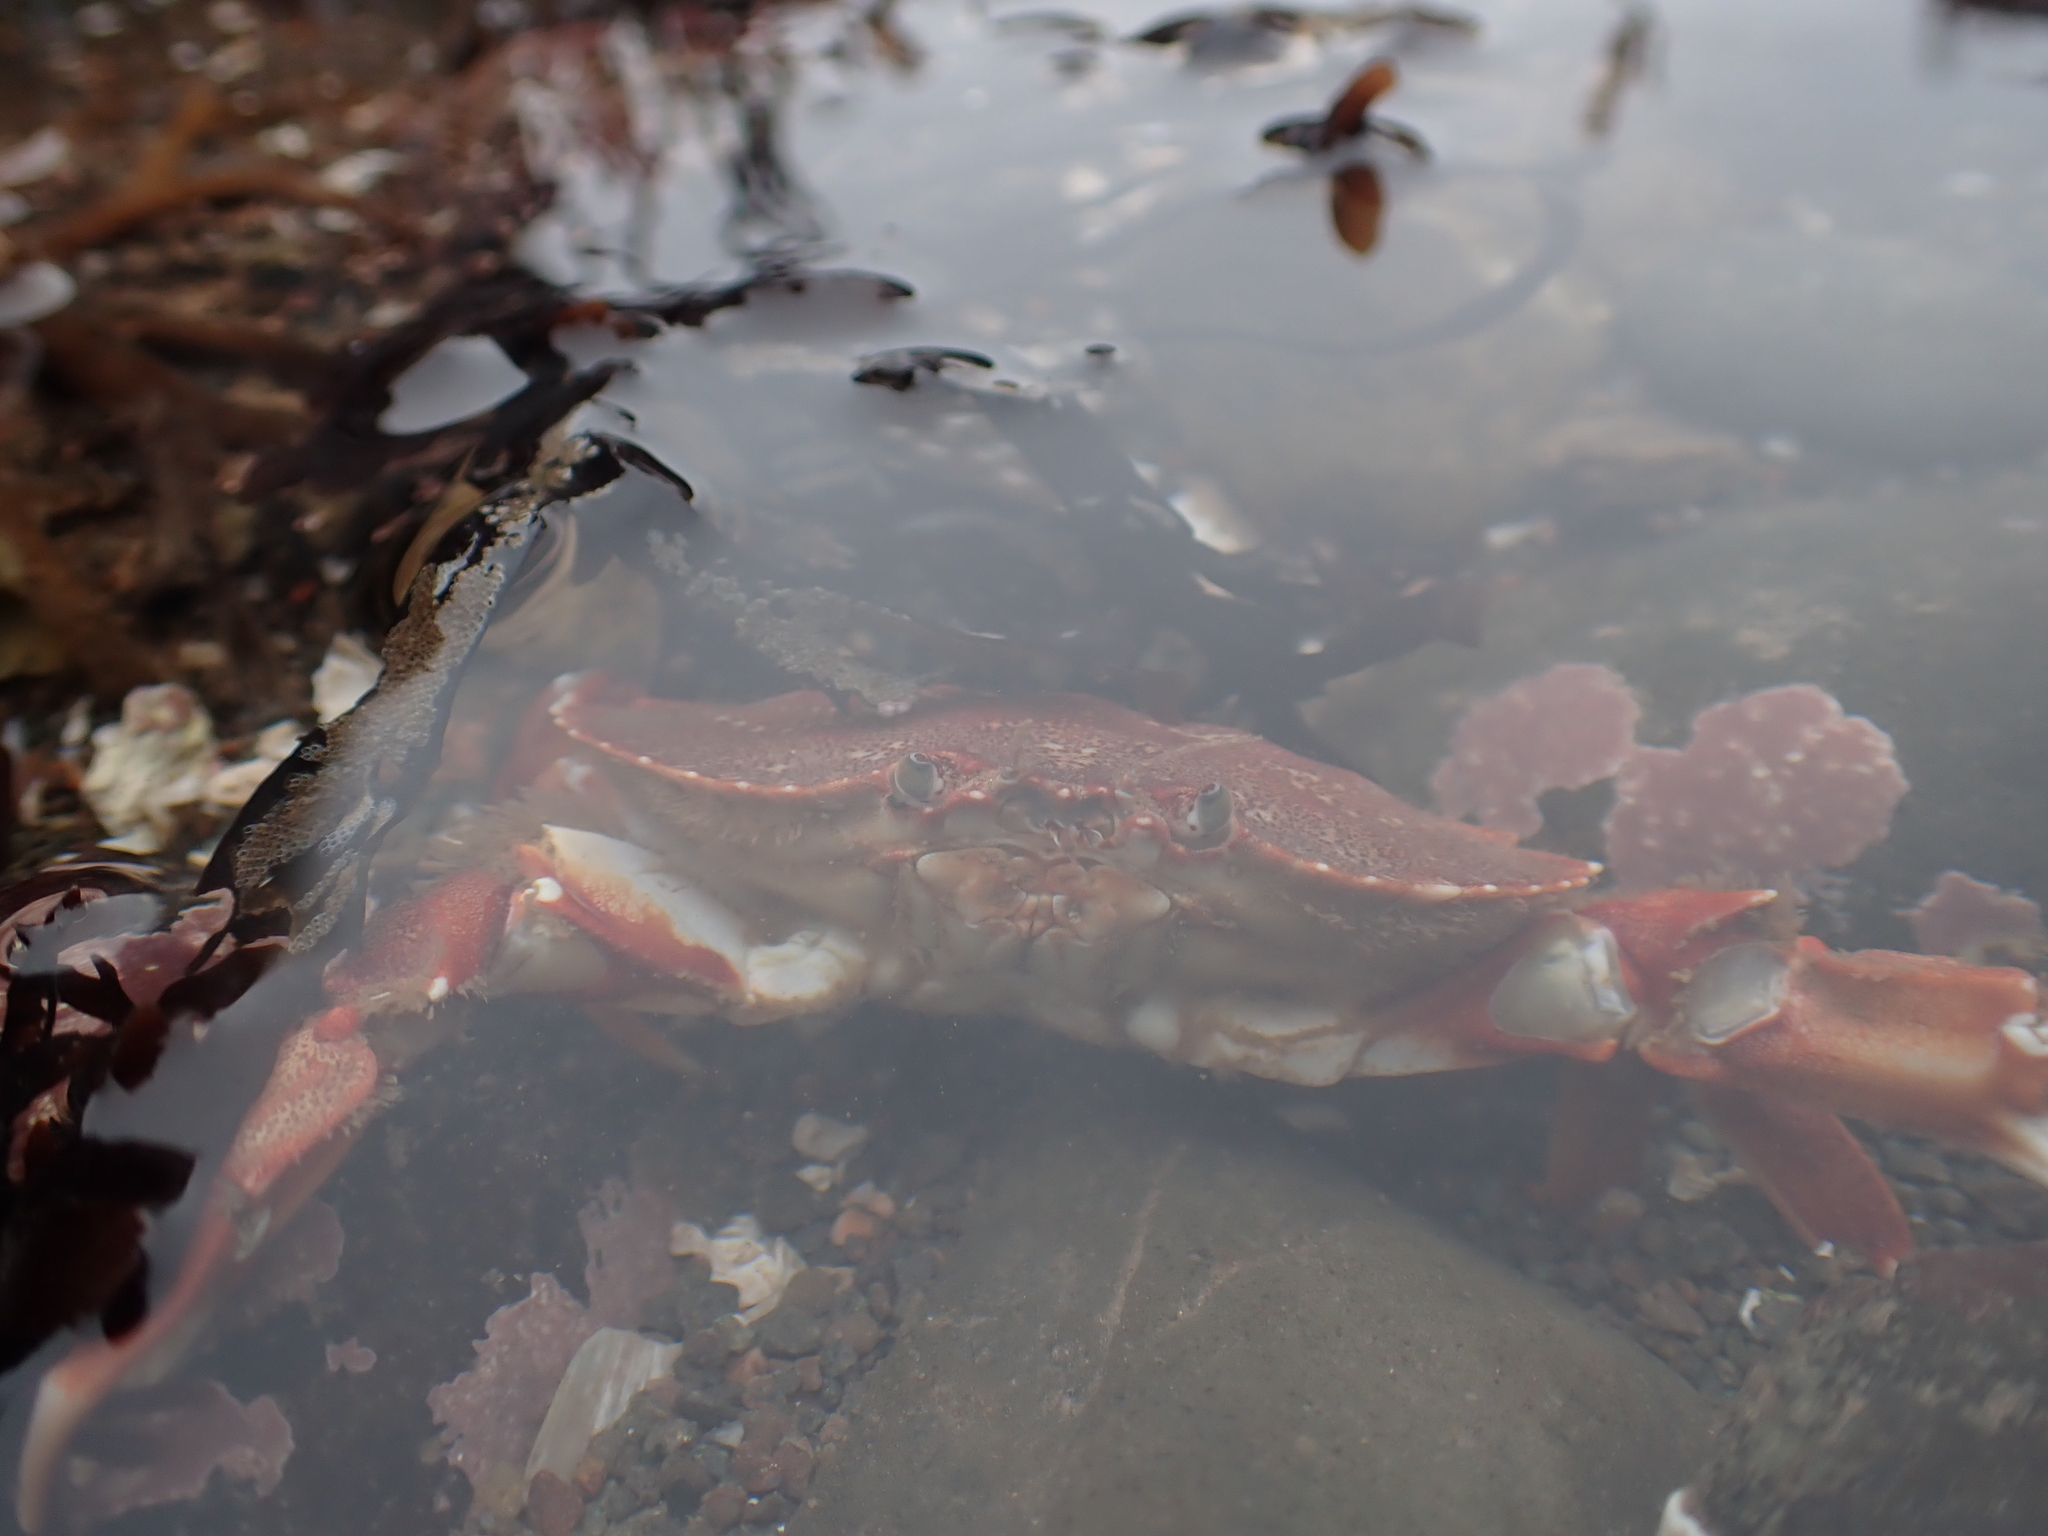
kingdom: Animalia
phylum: Arthropoda
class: Malacostraca
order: Decapoda
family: Cancridae
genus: Cancer
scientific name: Cancer irroratus
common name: Atlantic rock crab
